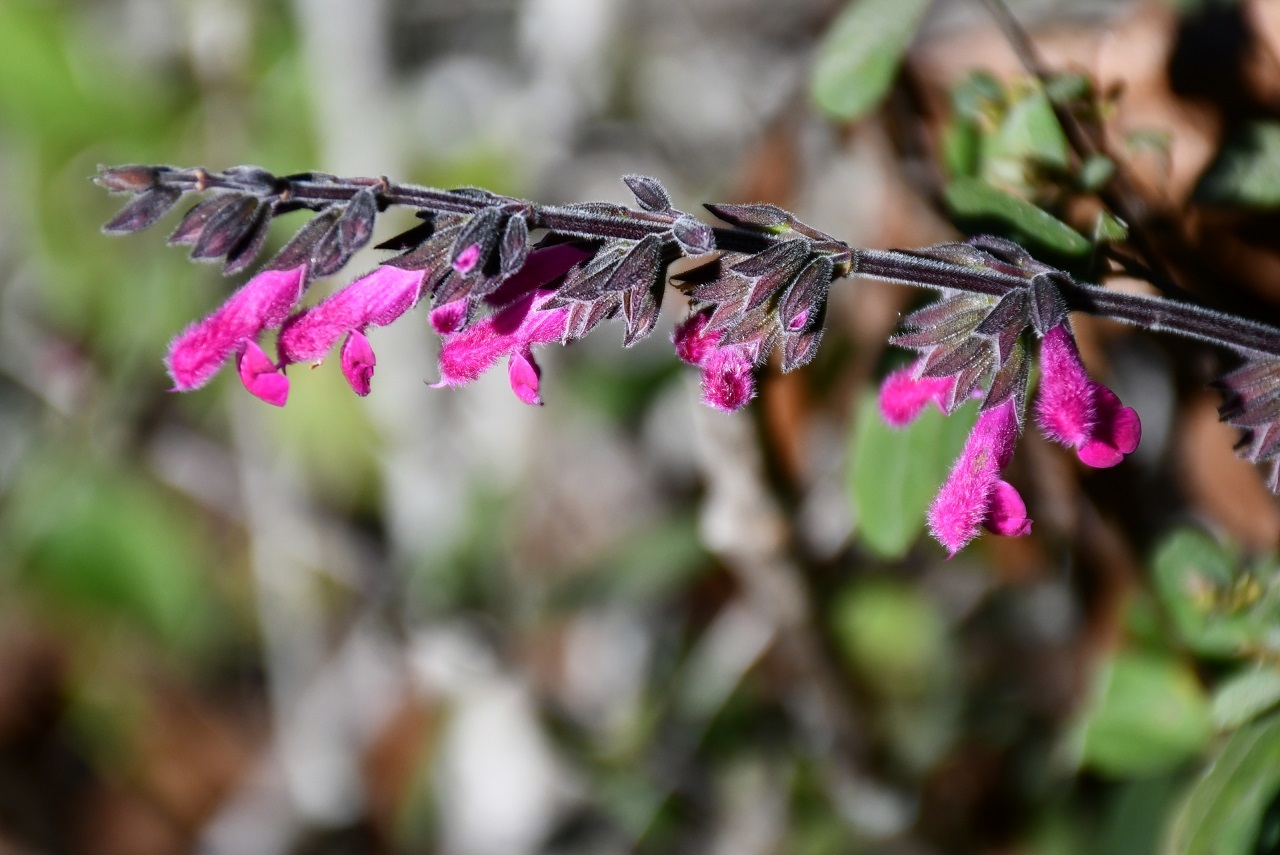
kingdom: Plantae
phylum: Tracheophyta
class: Magnoliopsida
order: Lamiales
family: Lamiaceae
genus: Salvia
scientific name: Salvia chiapensis
